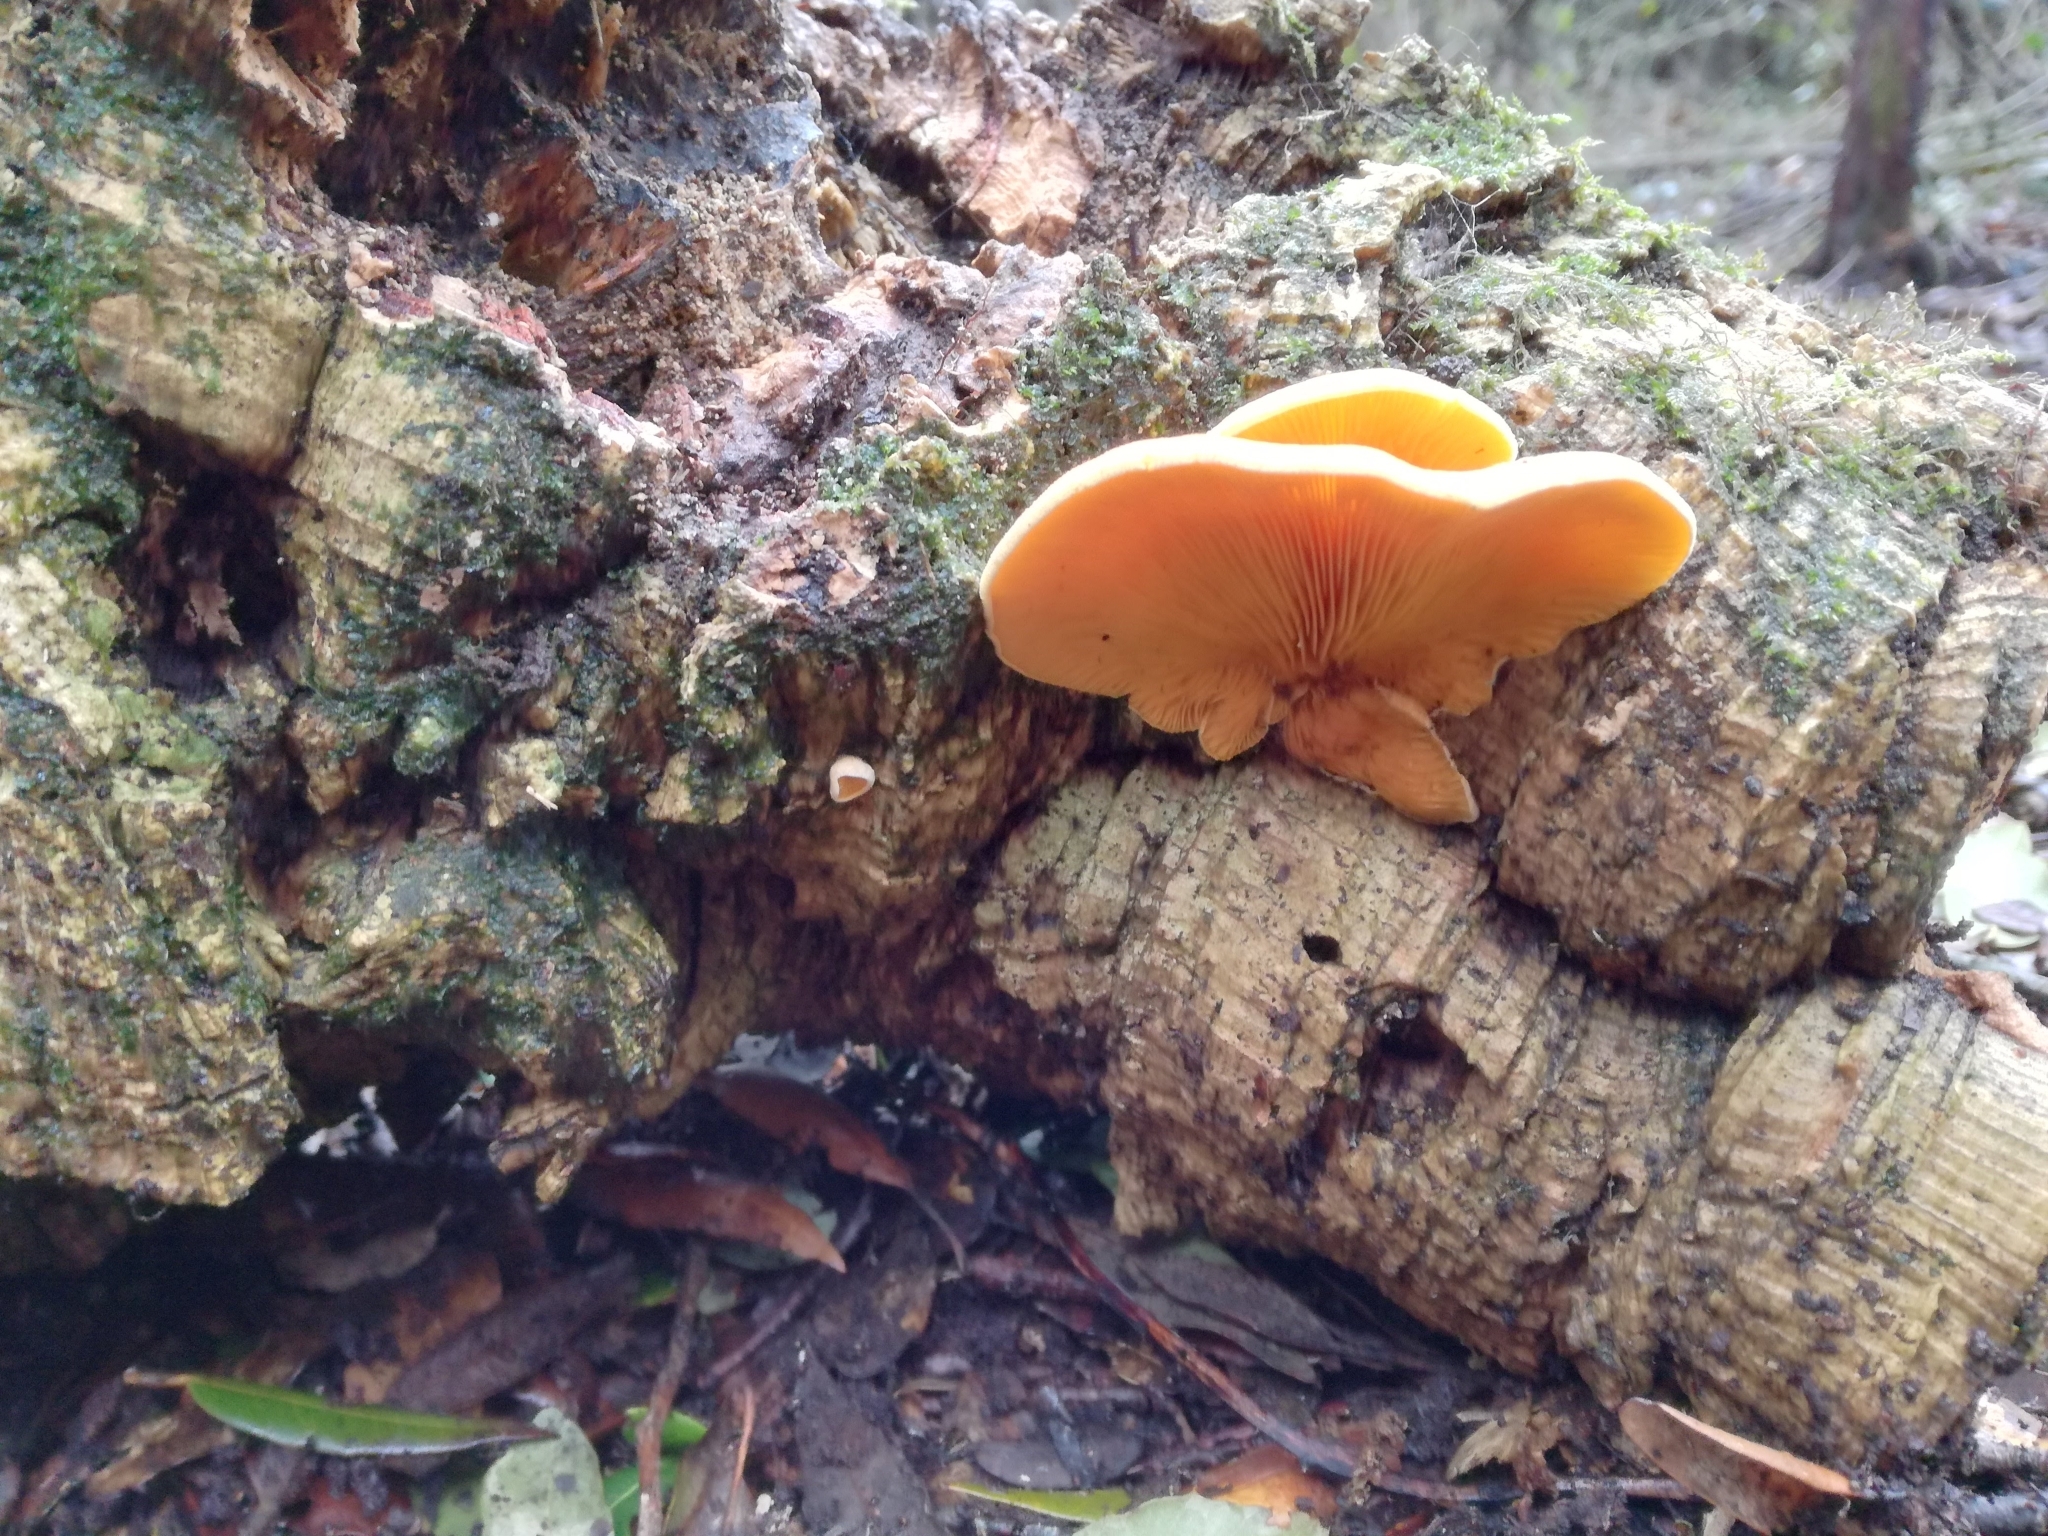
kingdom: Fungi
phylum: Basidiomycota
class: Agaricomycetes
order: Agaricales
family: Phyllotopsidaceae
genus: Phyllotopsis
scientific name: Phyllotopsis nidulans
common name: Orange mock oyster
